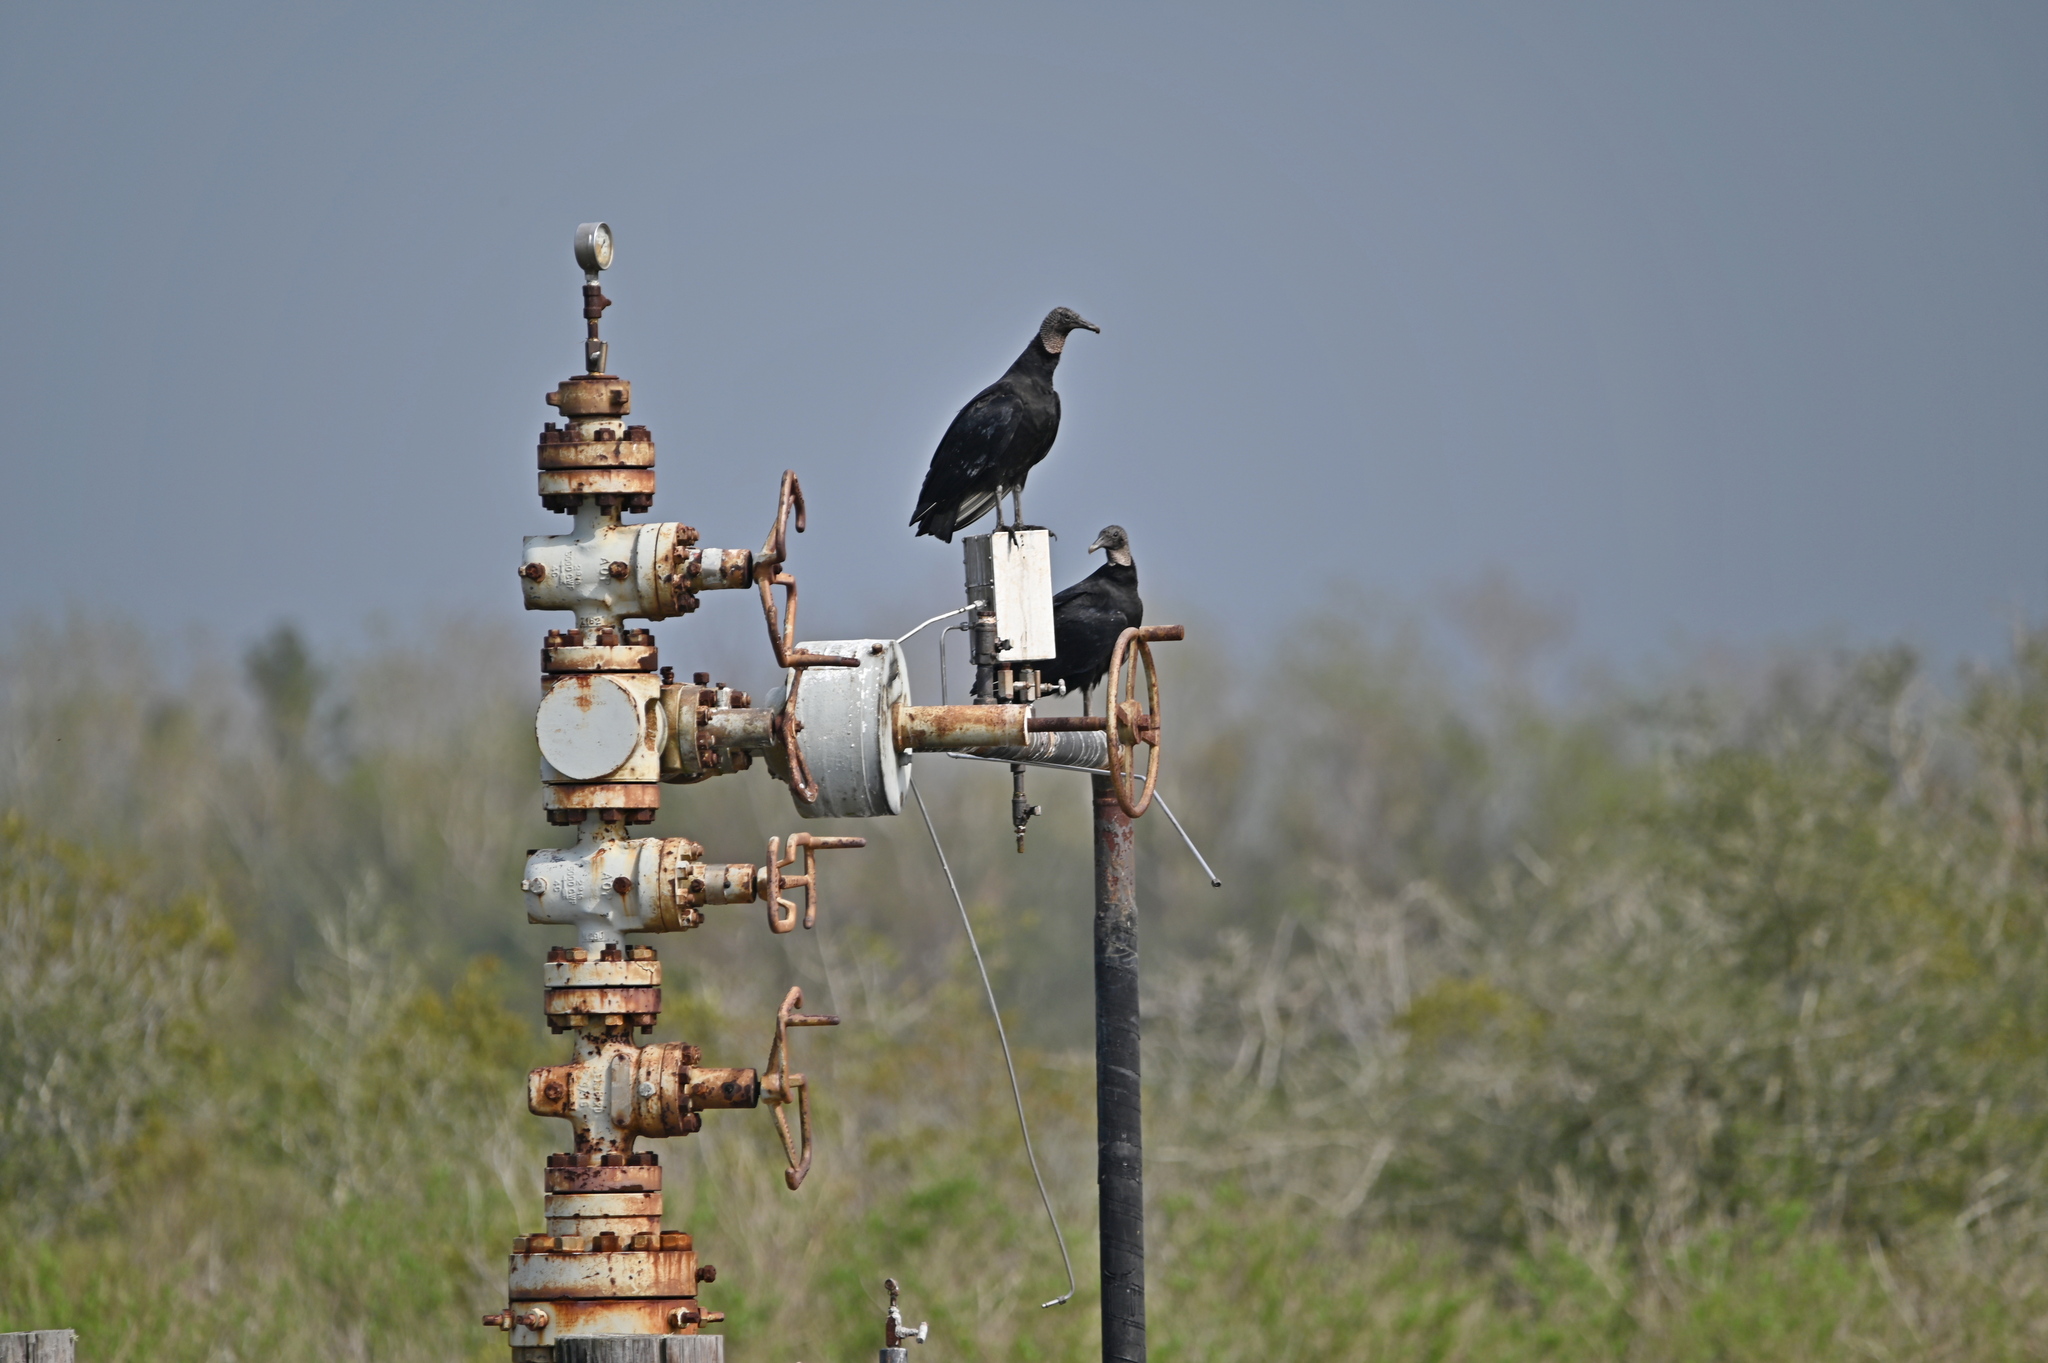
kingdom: Animalia
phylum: Chordata
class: Aves
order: Accipitriformes
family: Cathartidae
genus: Coragyps
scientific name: Coragyps atratus
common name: Black vulture
